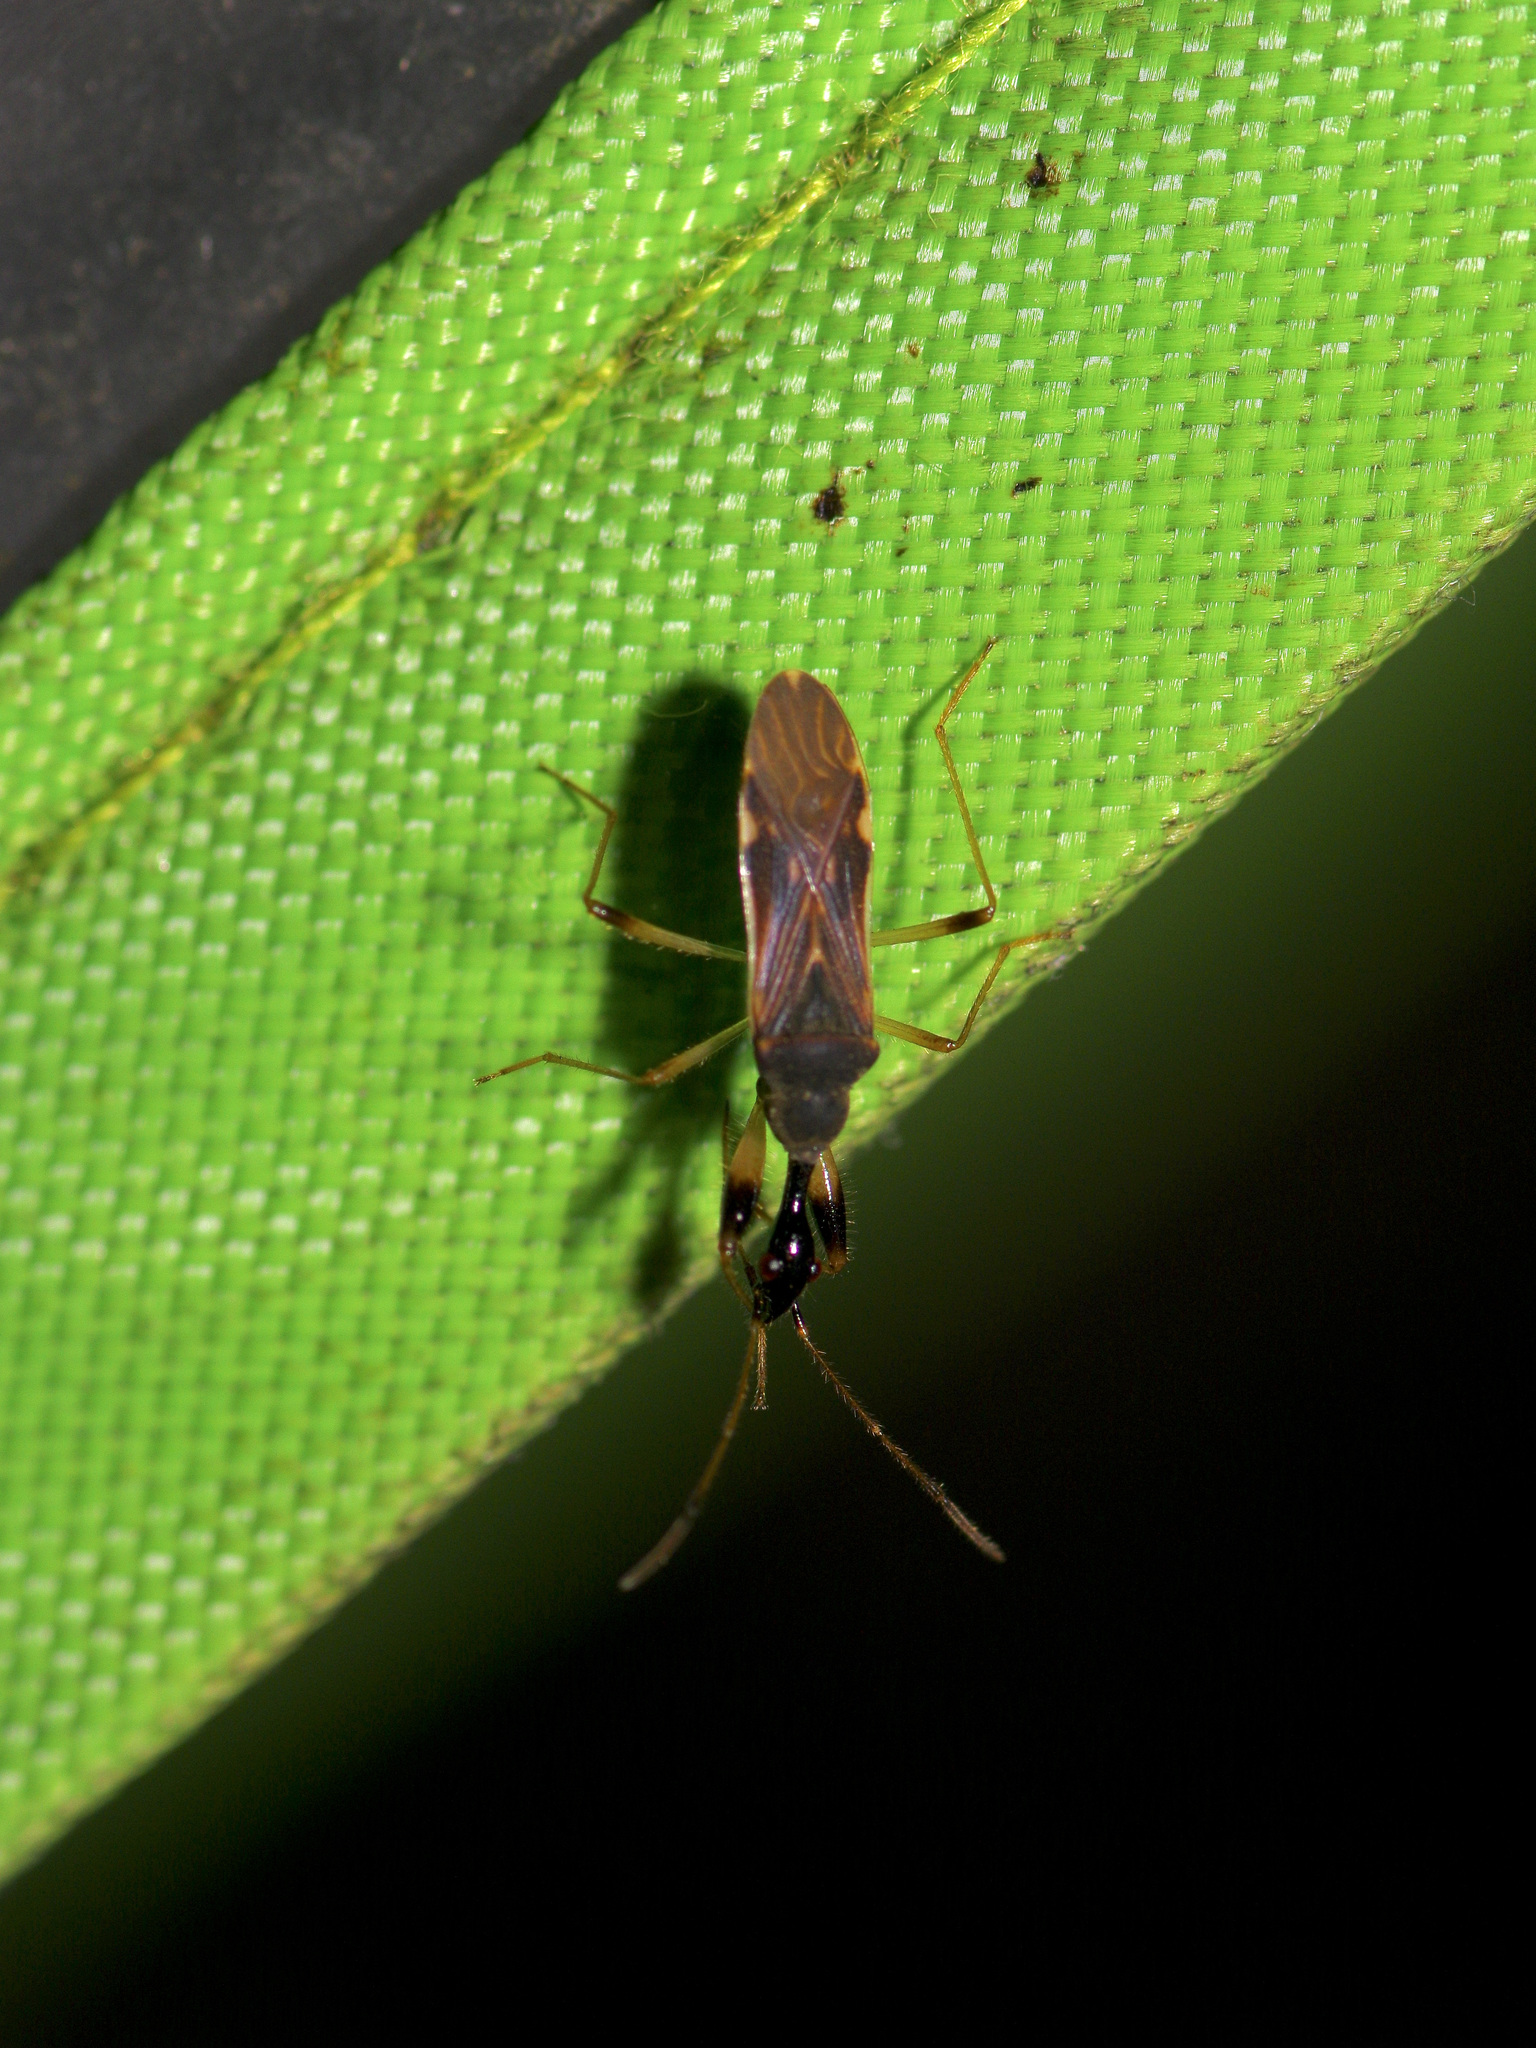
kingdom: Animalia
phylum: Arthropoda
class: Insecta
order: Hemiptera
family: Rhyparochromidae
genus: Myodocha
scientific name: Myodocha serripes
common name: Long-necked seed bug
